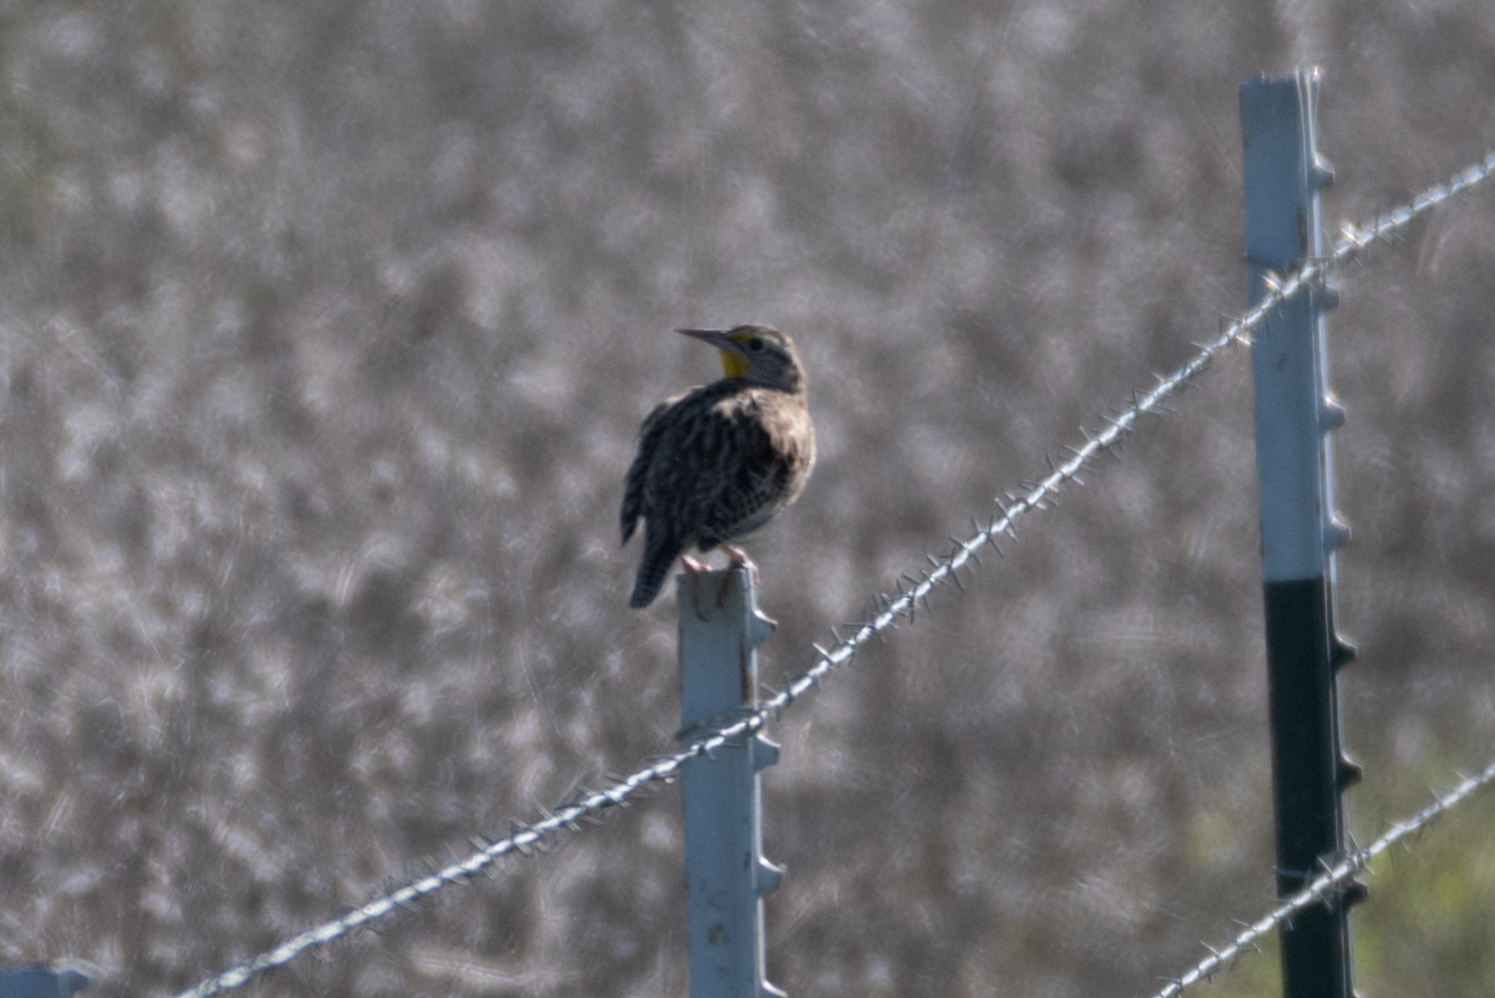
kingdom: Animalia
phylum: Chordata
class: Aves
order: Passeriformes
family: Icteridae
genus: Sturnella
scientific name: Sturnella neglecta
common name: Western meadowlark
